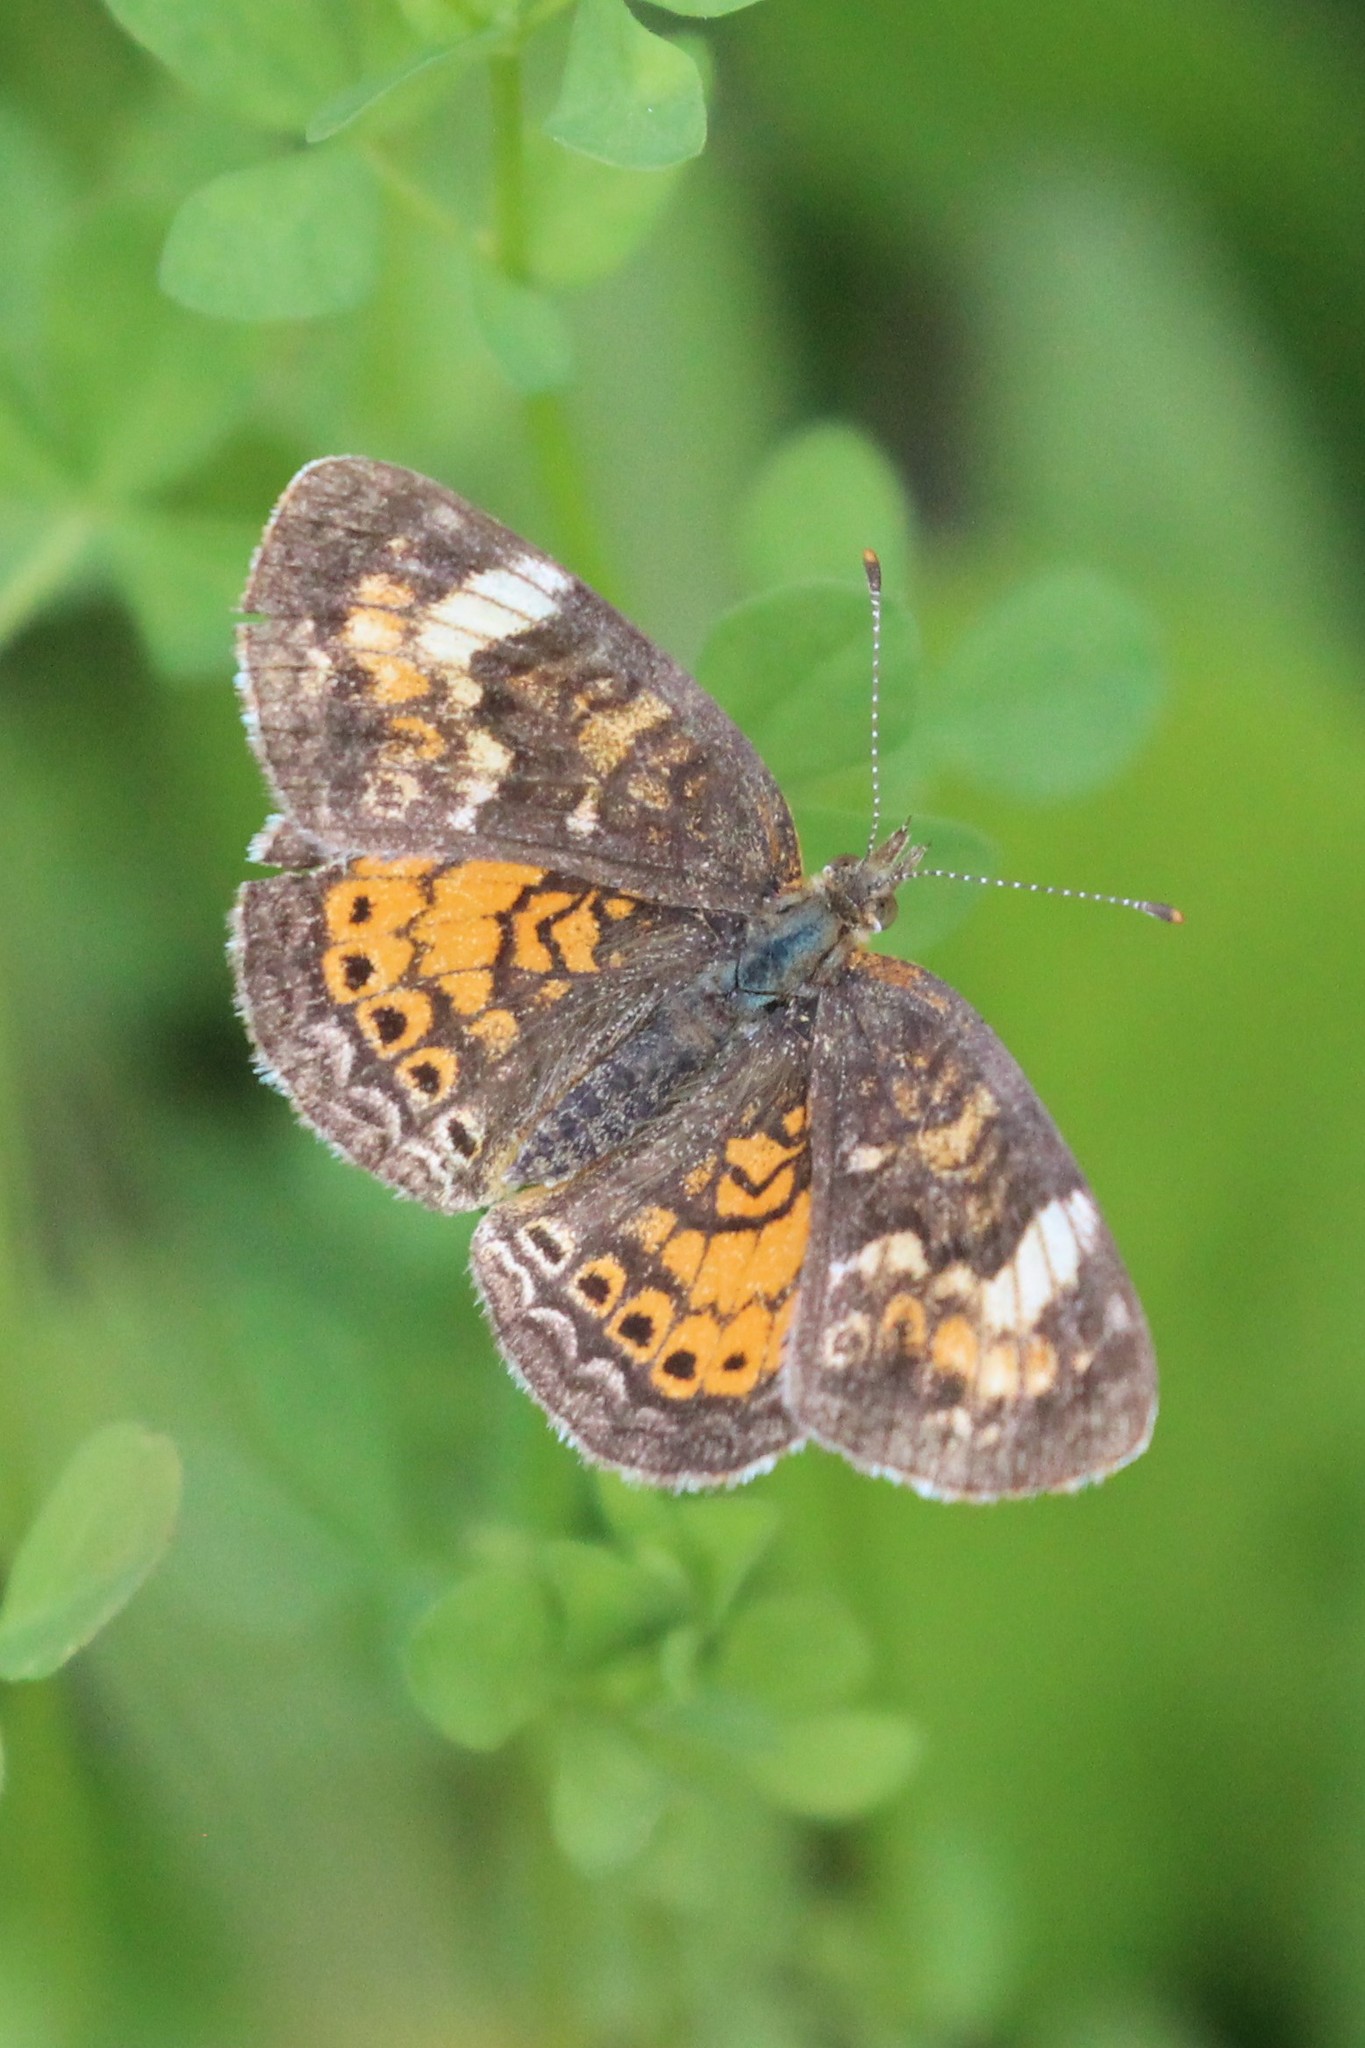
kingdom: Animalia
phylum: Arthropoda
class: Insecta
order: Lepidoptera
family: Nymphalidae
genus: Phyciodes
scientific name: Phyciodes tharos
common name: Pearl crescent
